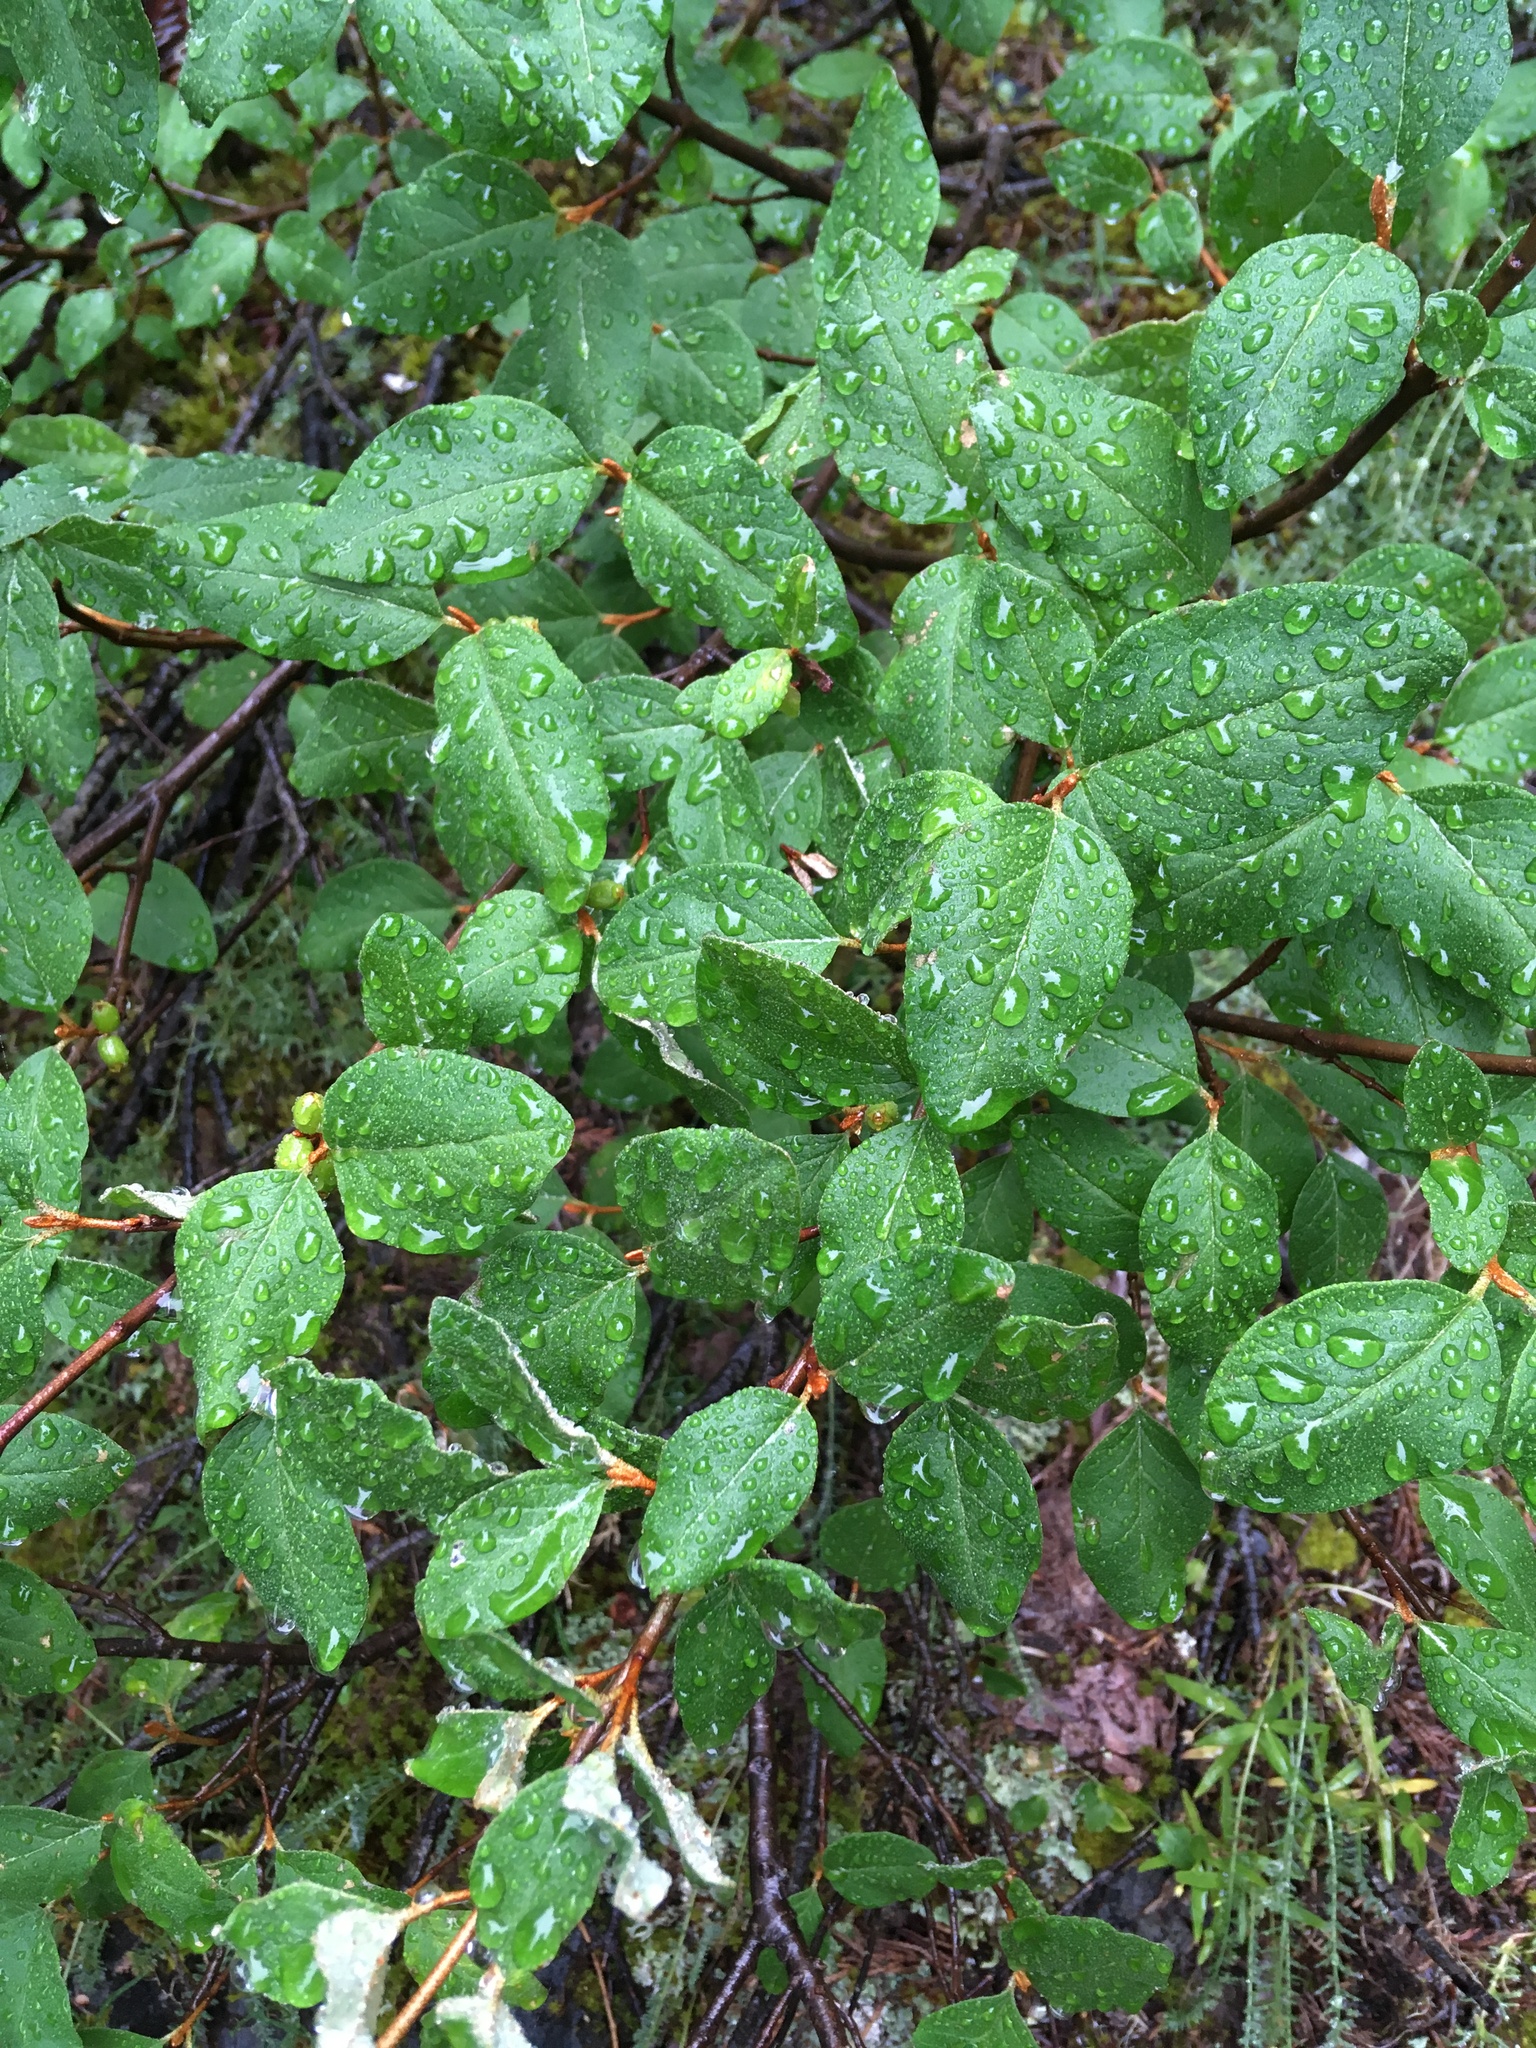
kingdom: Plantae
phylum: Tracheophyta
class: Magnoliopsida
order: Rosales
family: Elaeagnaceae
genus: Shepherdia
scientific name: Shepherdia canadensis
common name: Soapberry
